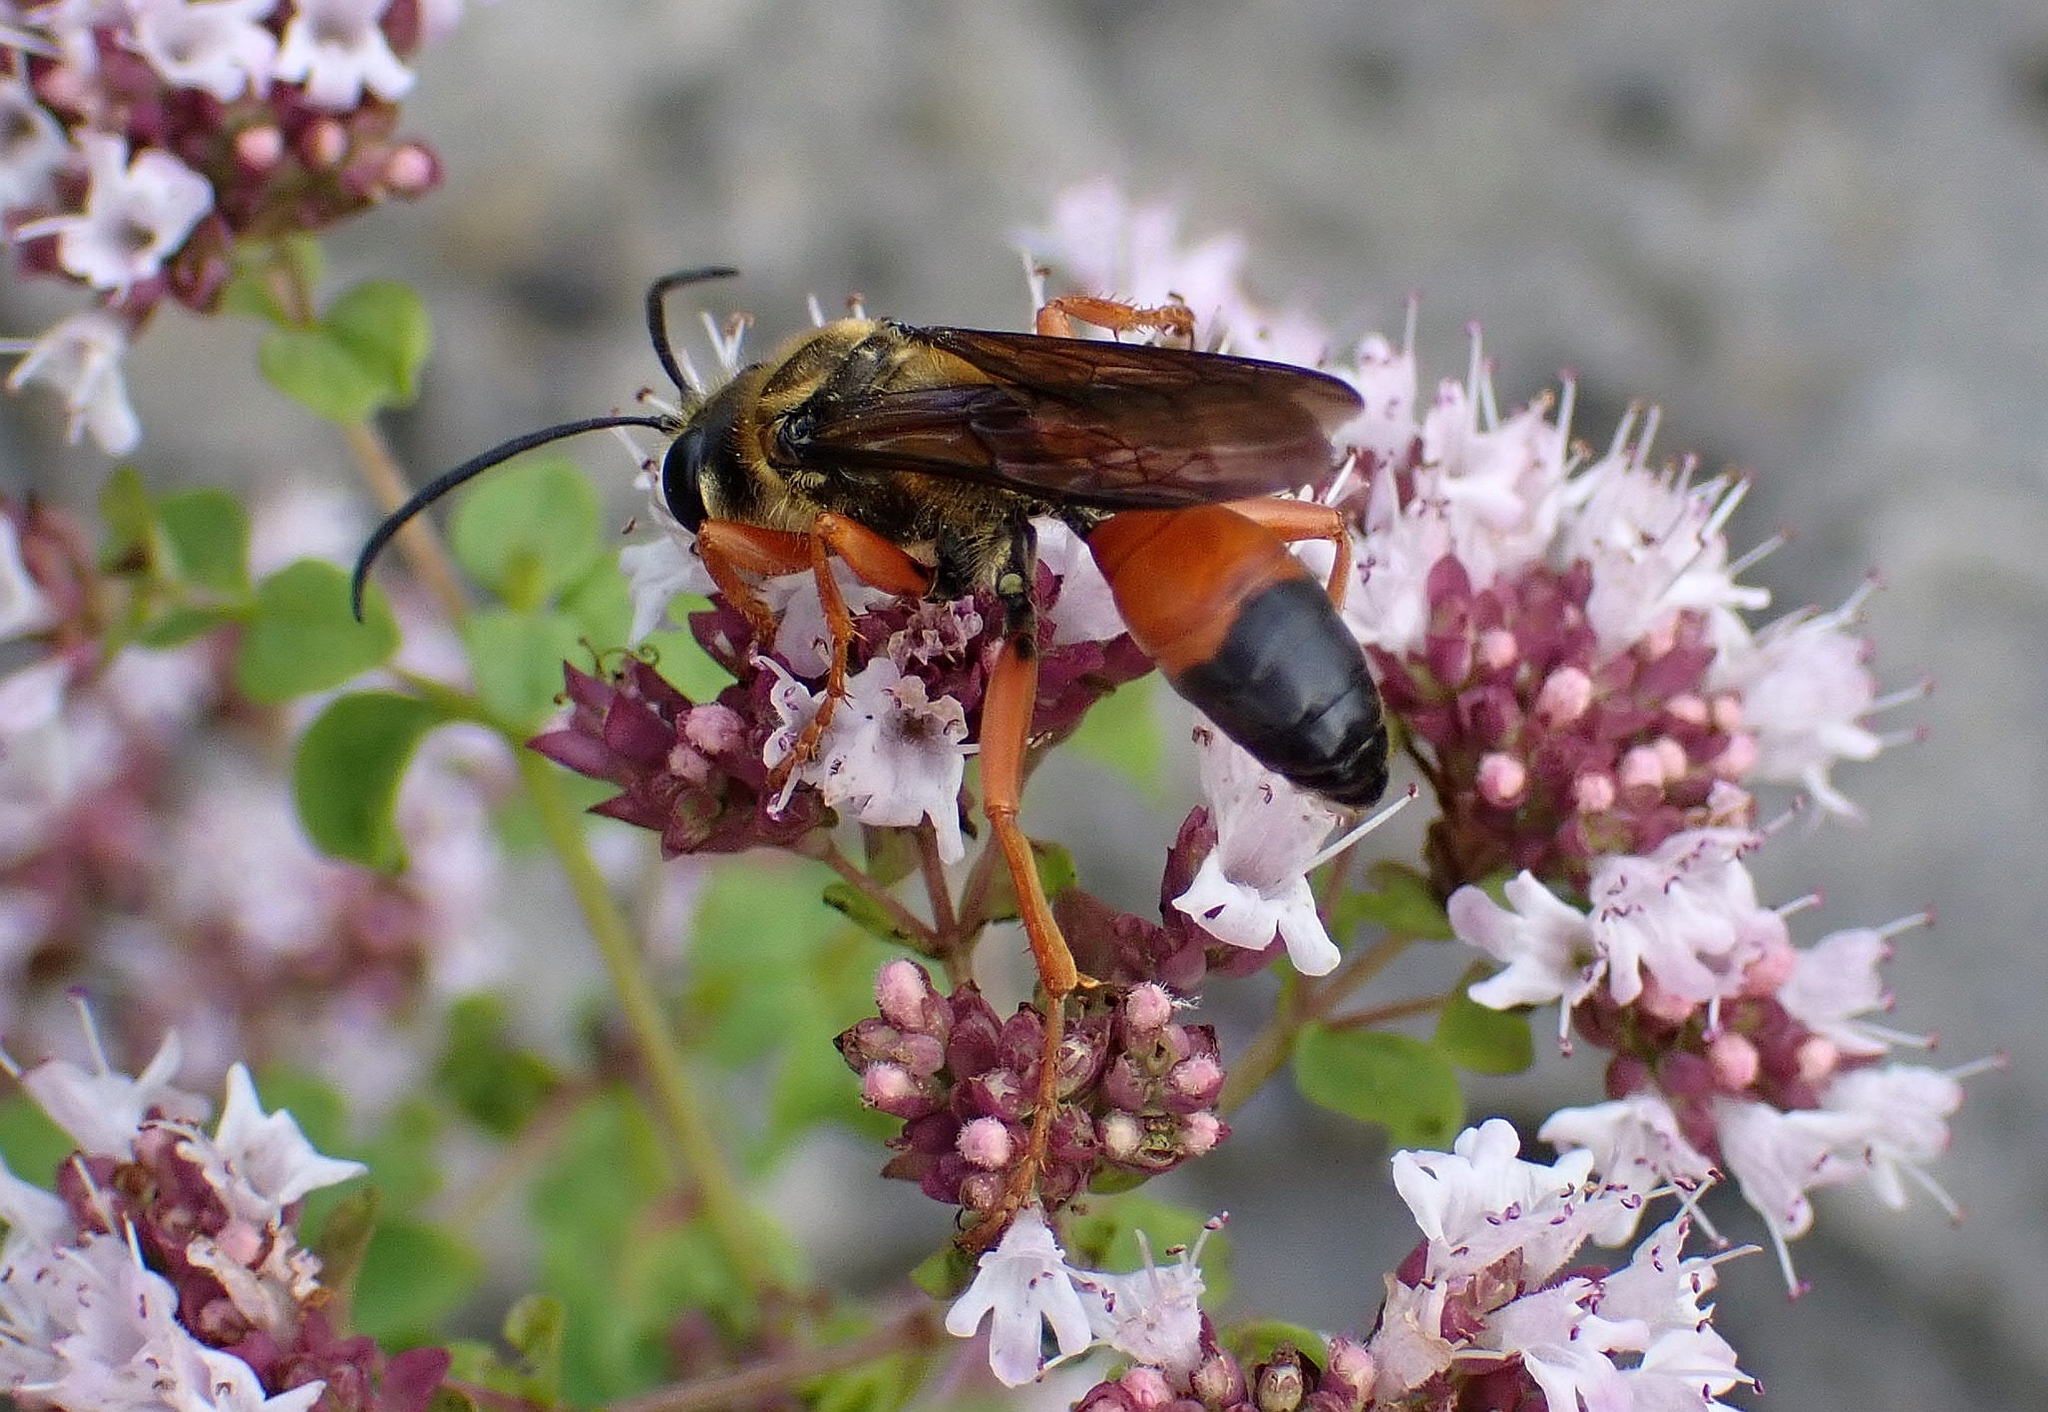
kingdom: Animalia
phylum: Arthropoda
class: Insecta
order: Hymenoptera
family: Sphecidae
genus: Sphex
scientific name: Sphex ichneumoneus
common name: Great golden digger wasp
